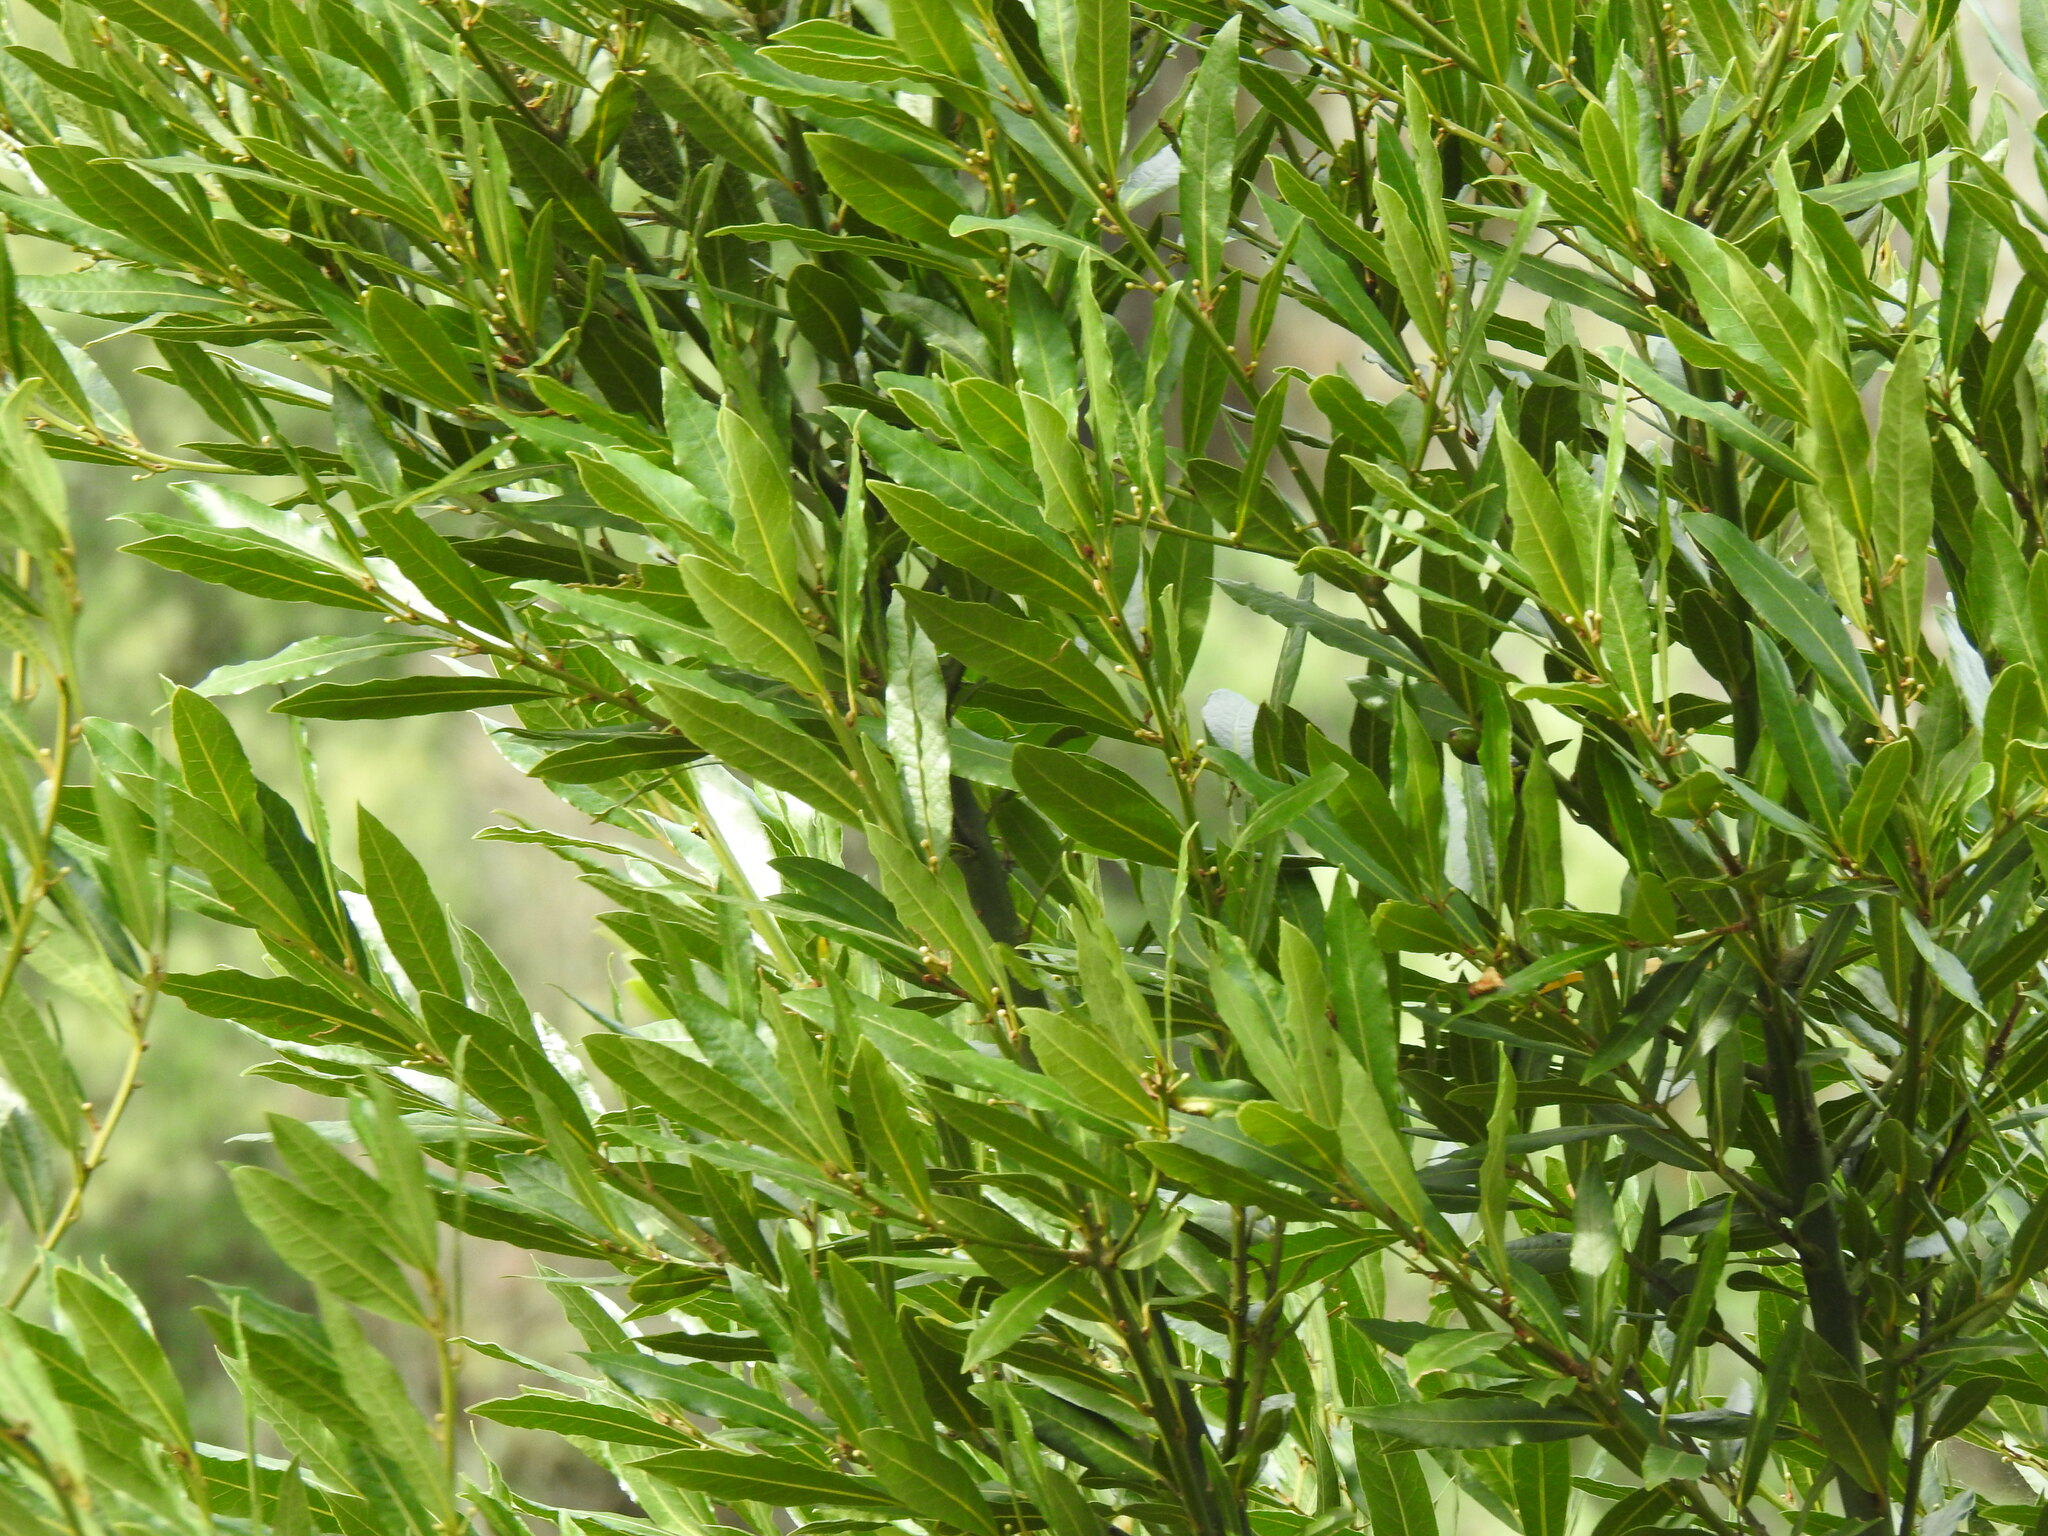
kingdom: Plantae
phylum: Tracheophyta
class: Magnoliopsida
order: Laurales
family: Lauraceae
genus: Laurus
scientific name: Laurus nobilis
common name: Bay
